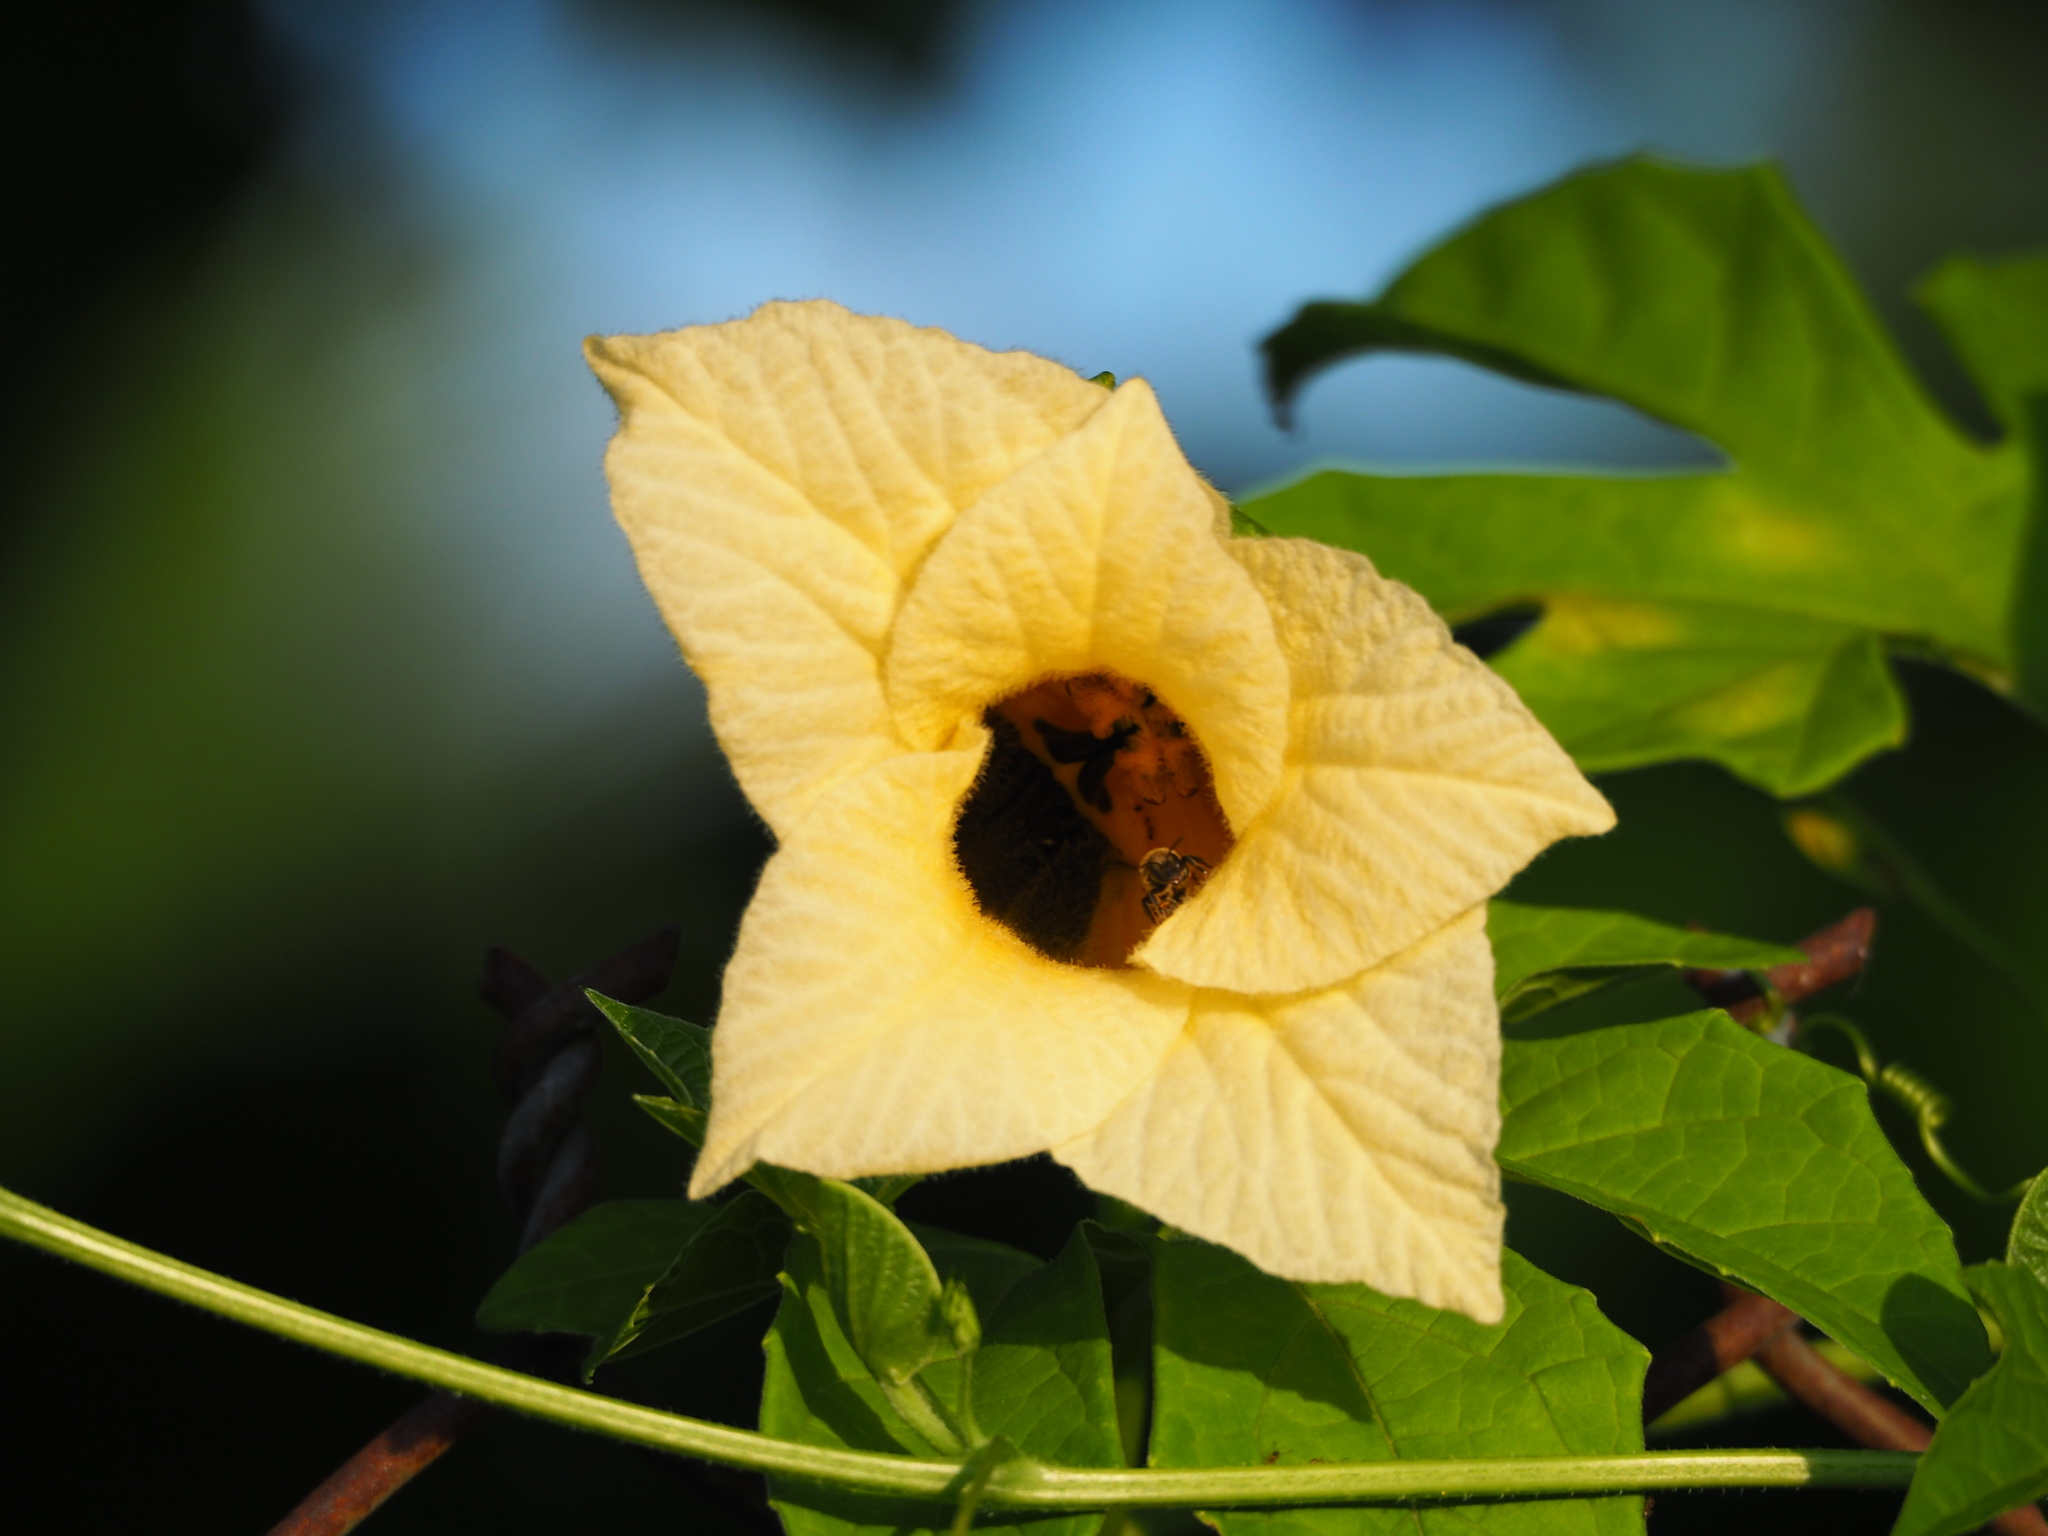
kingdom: Plantae
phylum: Tracheophyta
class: Magnoliopsida
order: Cucurbitales
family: Cucurbitaceae
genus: Momordica
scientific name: Momordica cochinchinensis
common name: Chinese bitter-cucumber
